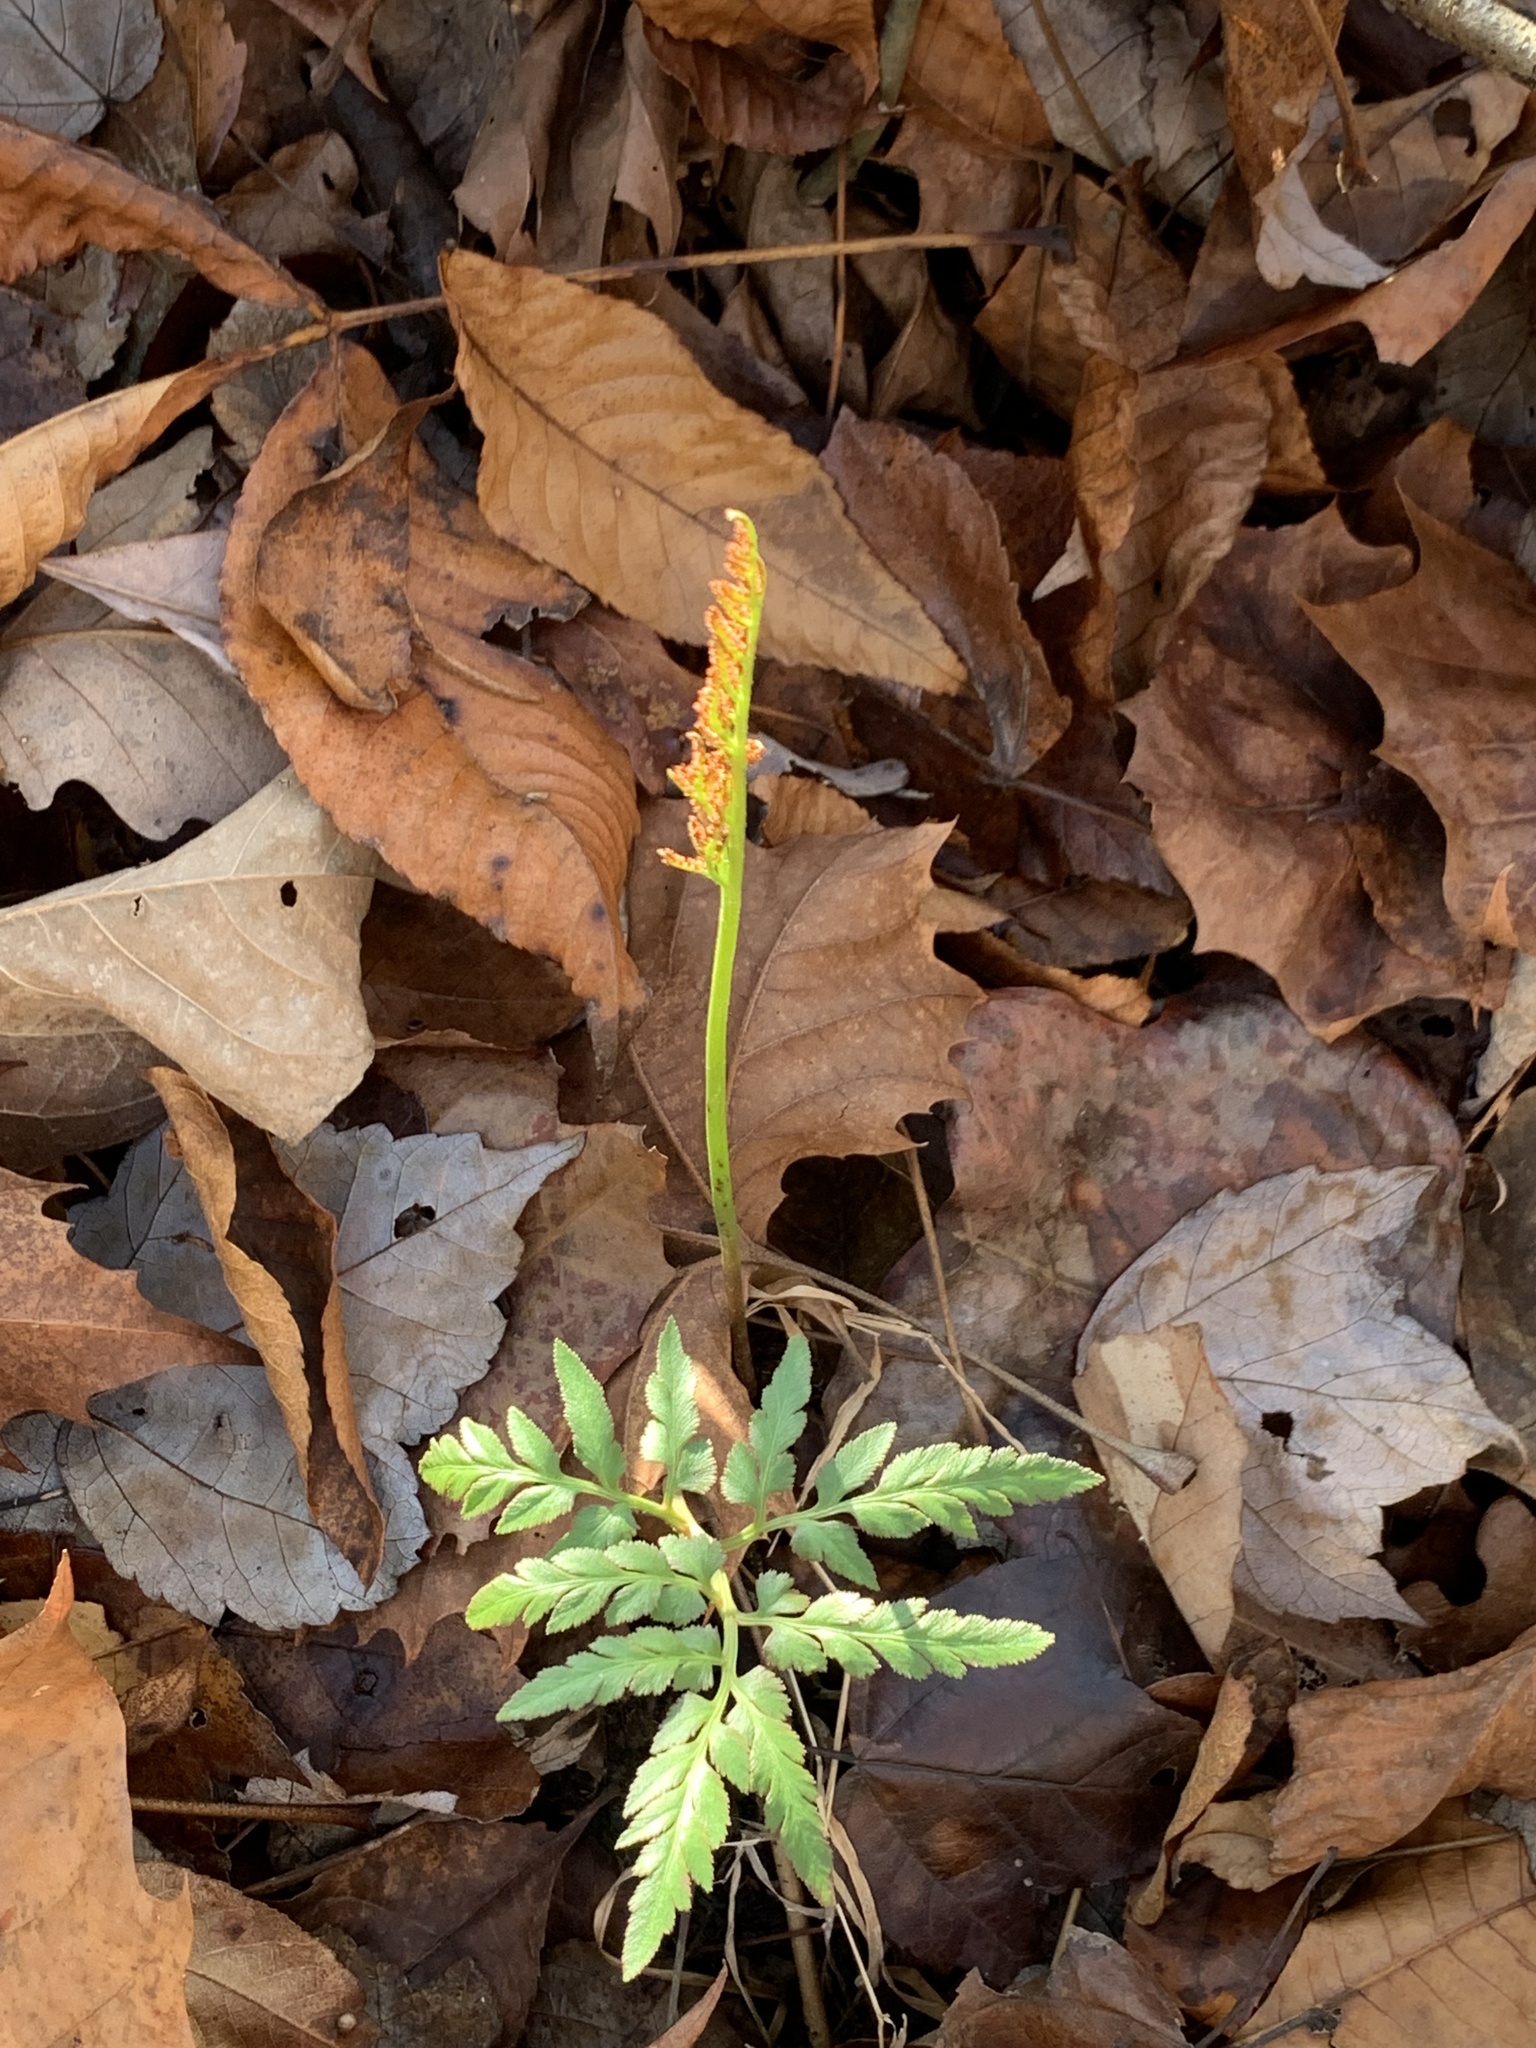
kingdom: Plantae
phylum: Tracheophyta
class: Polypodiopsida
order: Ophioglossales
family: Ophioglossaceae
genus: Sceptridium
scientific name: Sceptridium dissectum
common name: Cut-leaved grapefern
